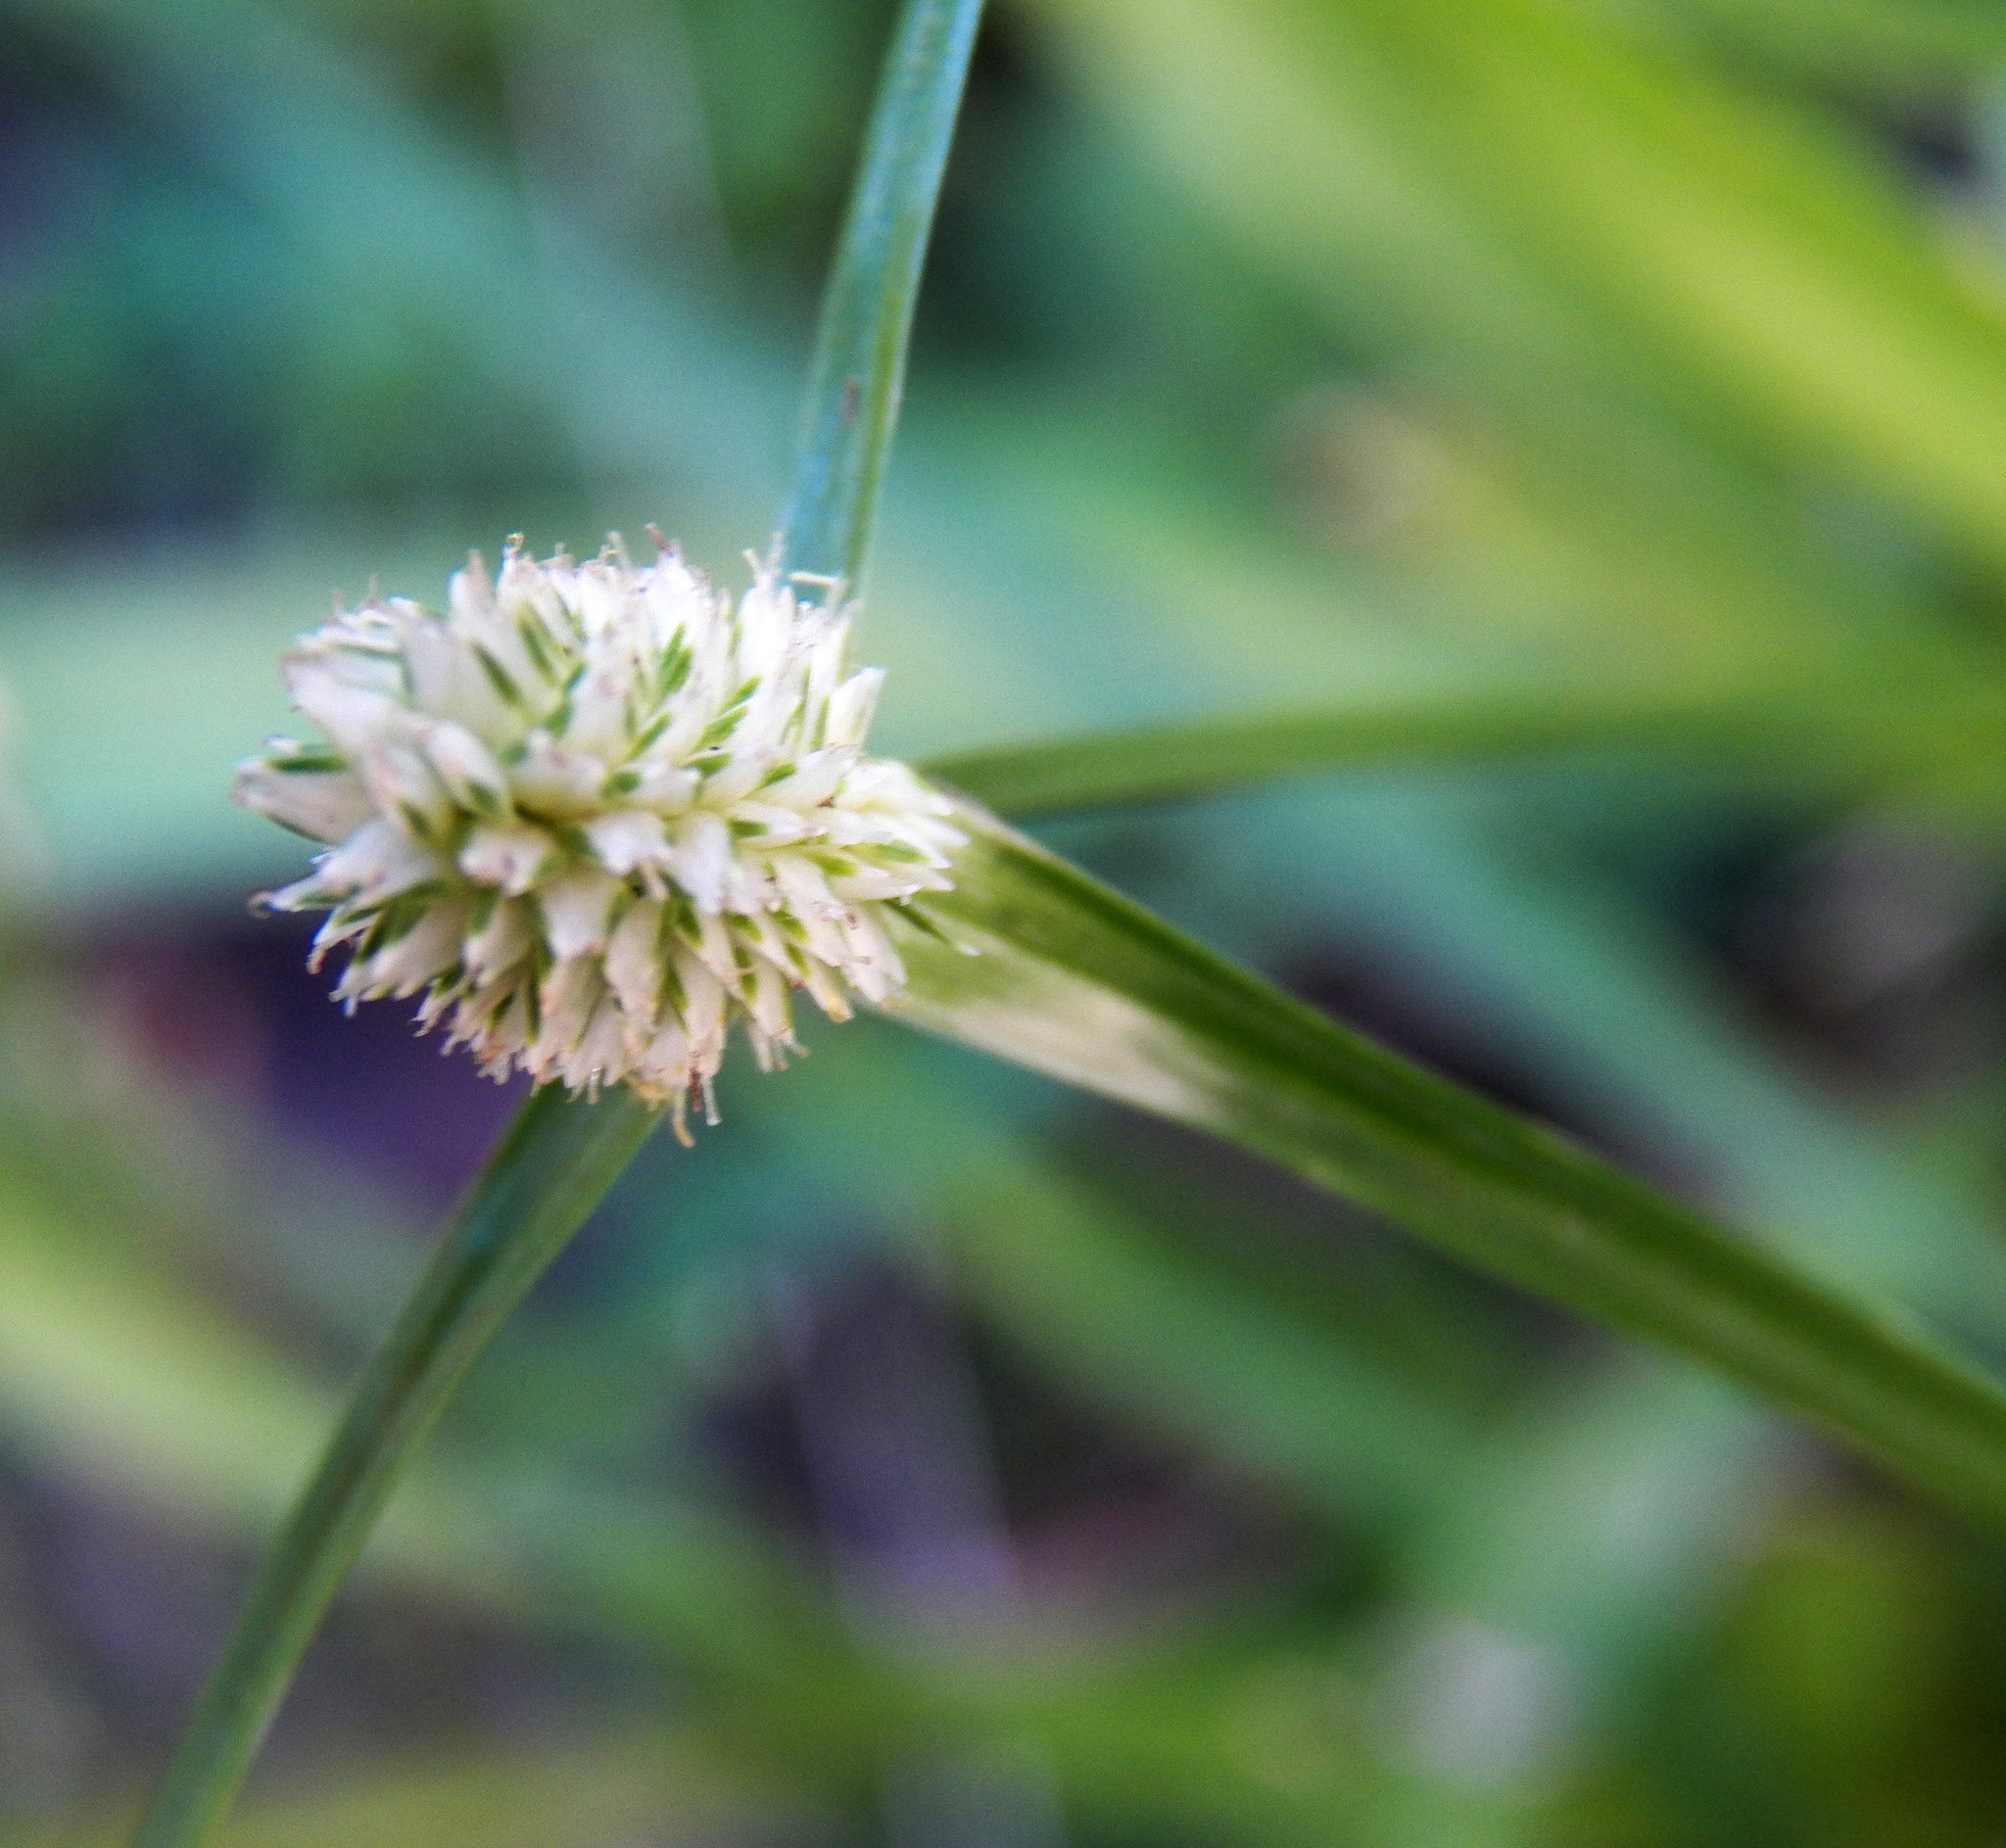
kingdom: Plantae
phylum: Tracheophyta
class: Liliopsida
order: Poales
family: Cyperaceae
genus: Cyperus
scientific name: Cyperus sesquiflorus
